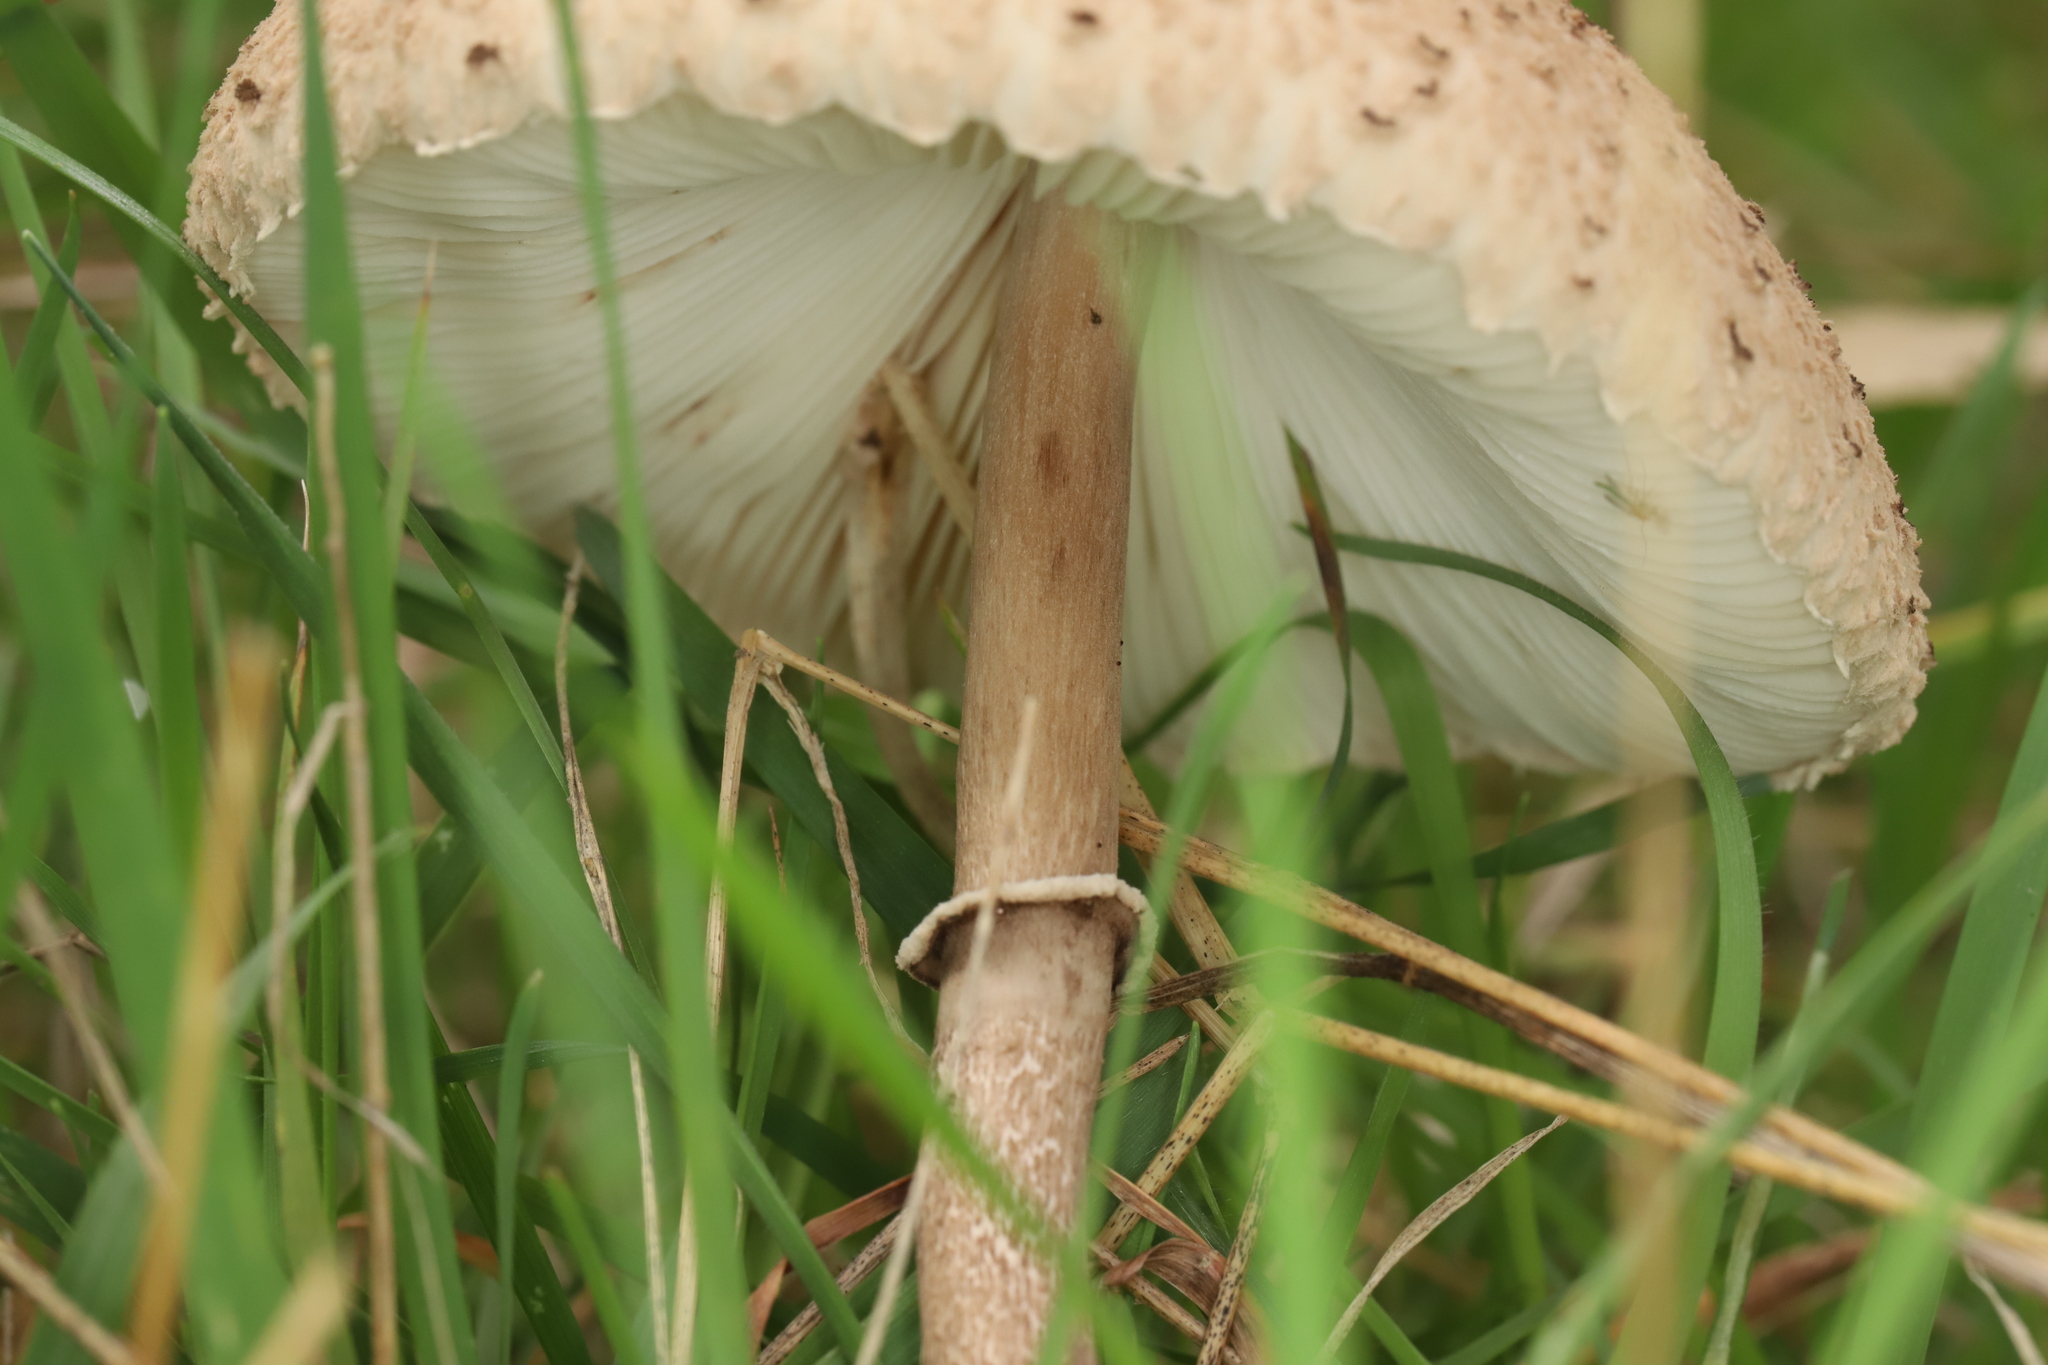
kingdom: Fungi
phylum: Basidiomycota
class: Agaricomycetes
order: Agaricales
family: Agaricaceae
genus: Macrolepiota
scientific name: Macrolepiota clelandii
